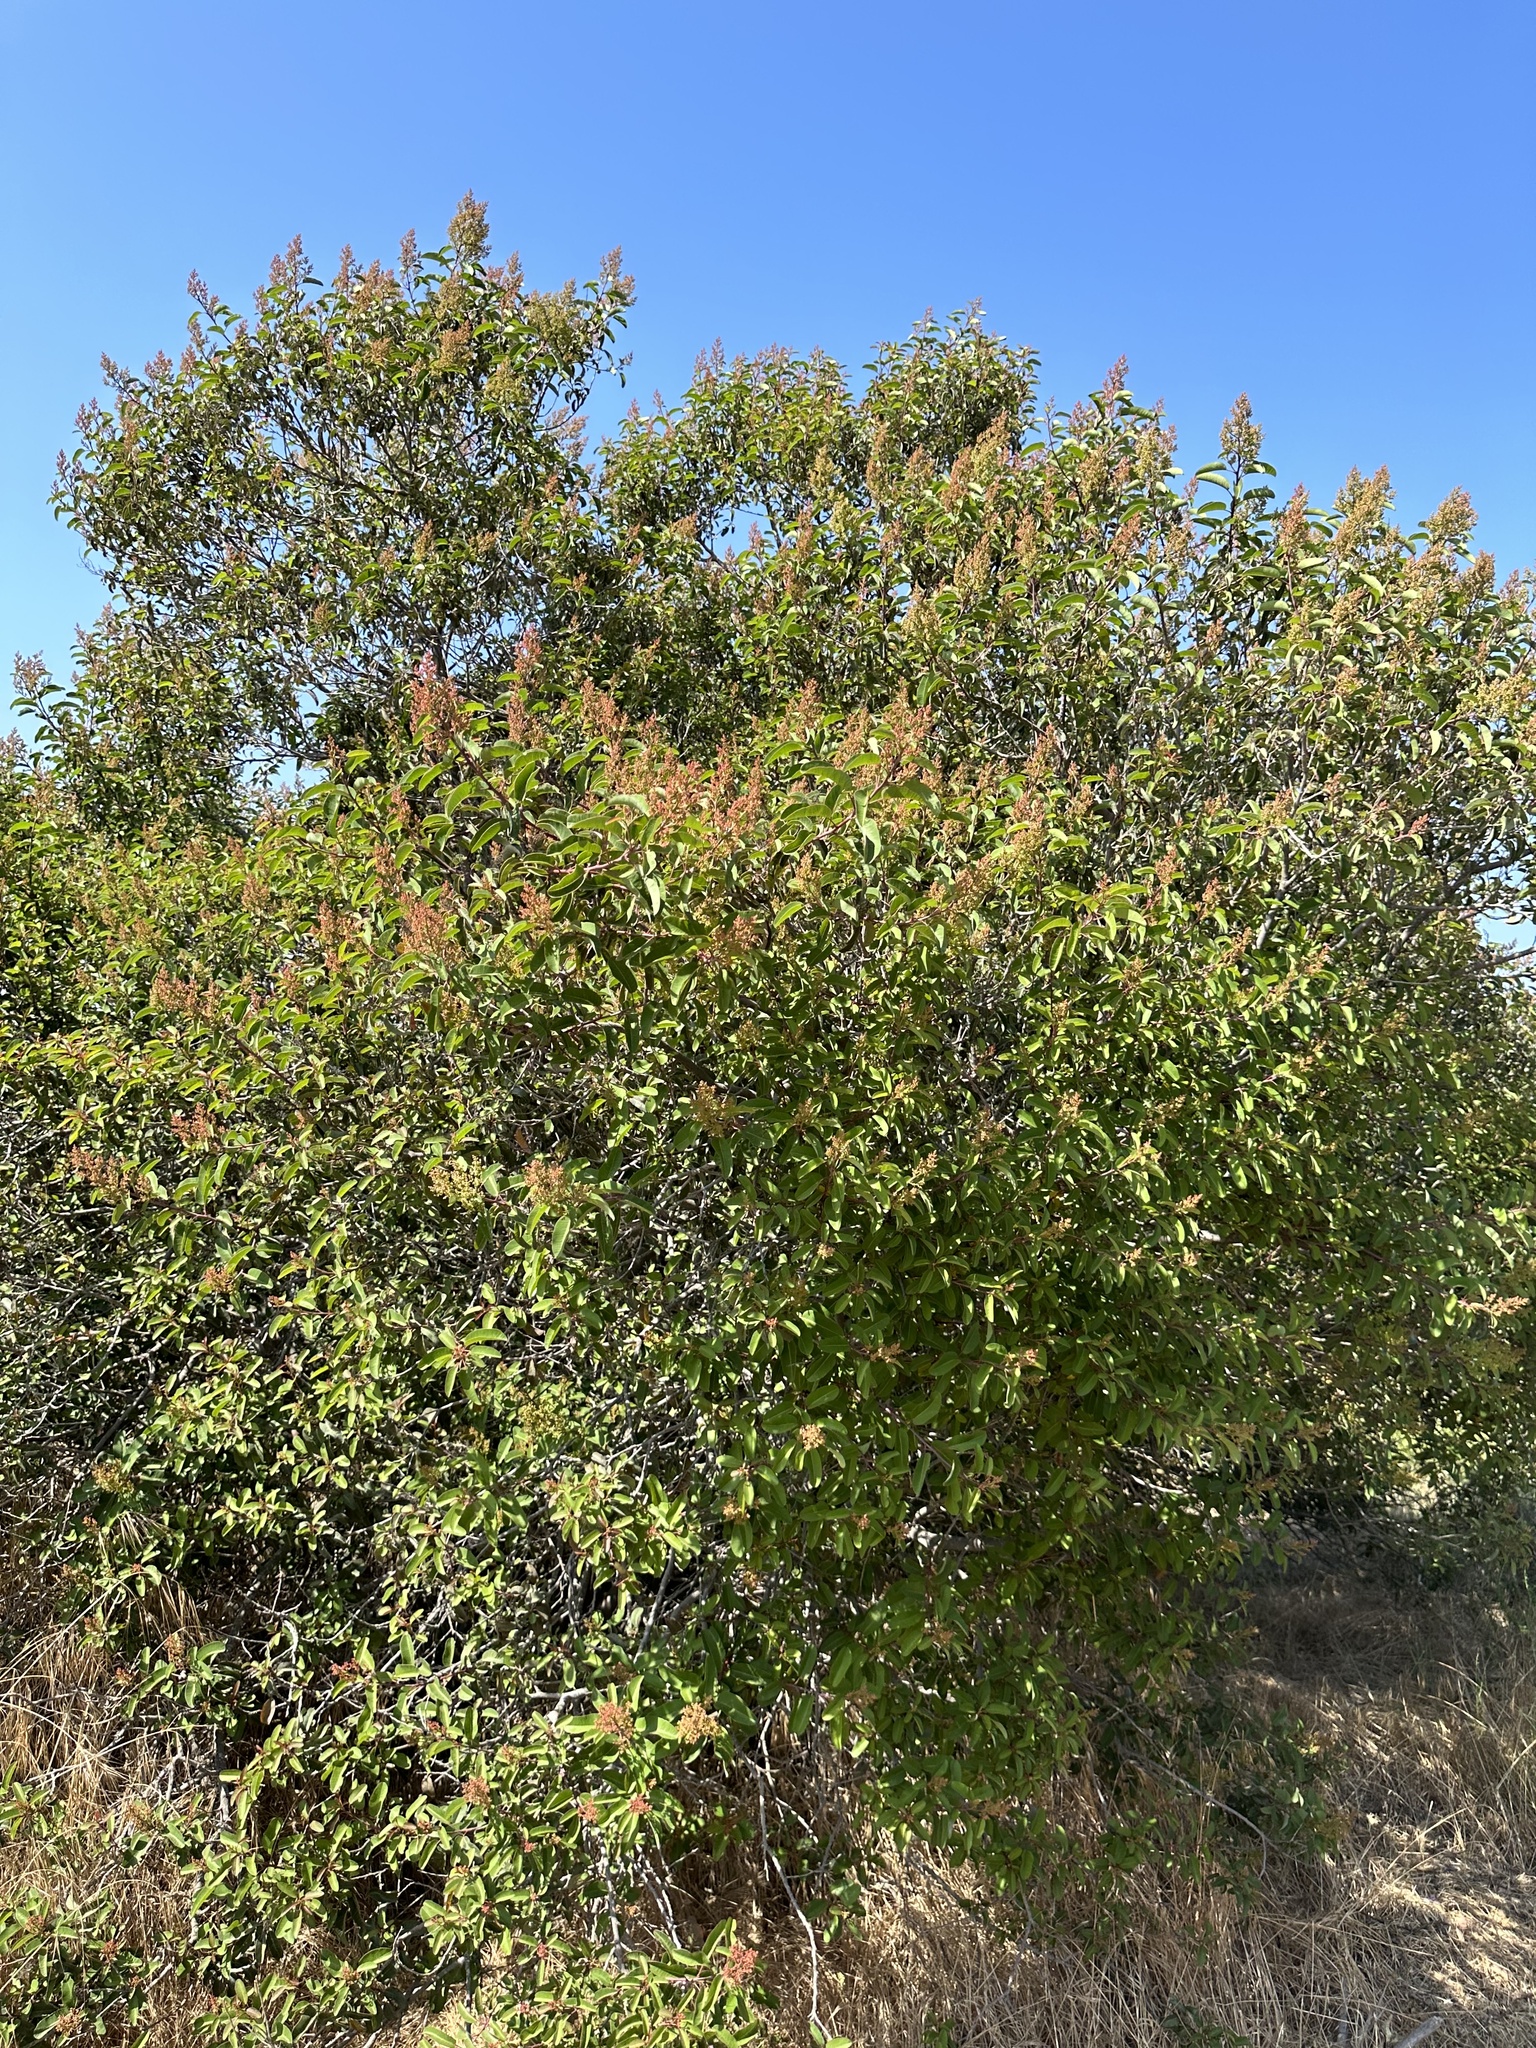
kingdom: Plantae
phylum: Tracheophyta
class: Magnoliopsida
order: Sapindales
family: Anacardiaceae
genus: Malosma
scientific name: Malosma laurina
